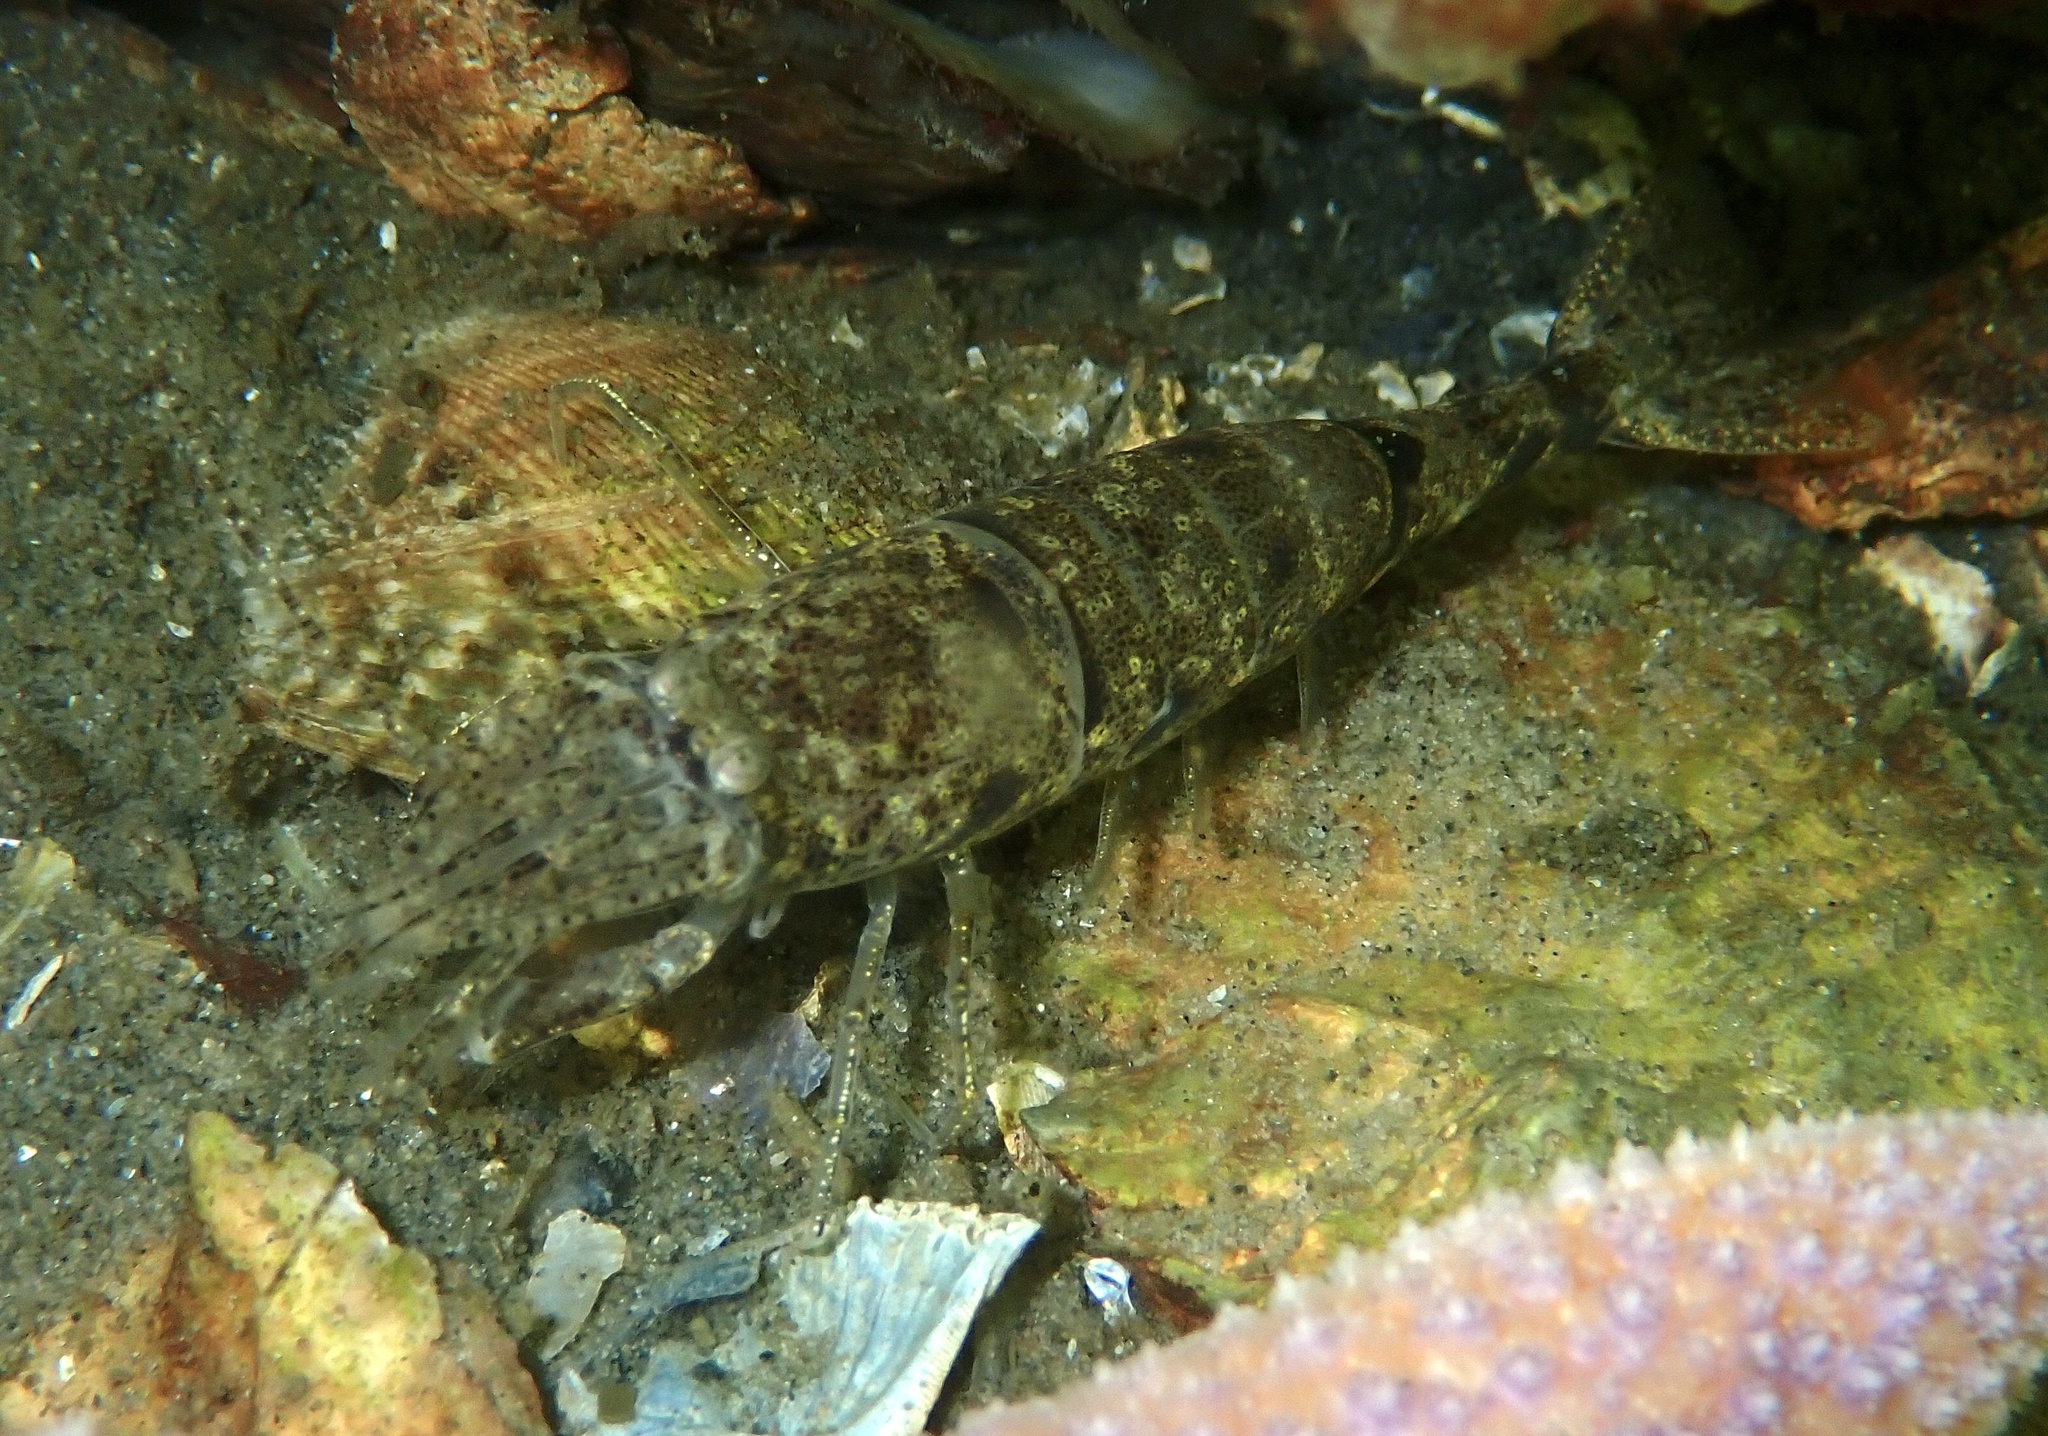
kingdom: Animalia
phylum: Arthropoda
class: Malacostraca
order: Decapoda
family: Crangonidae
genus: Crangon
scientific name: Crangon crangon
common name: Brown shrimp
